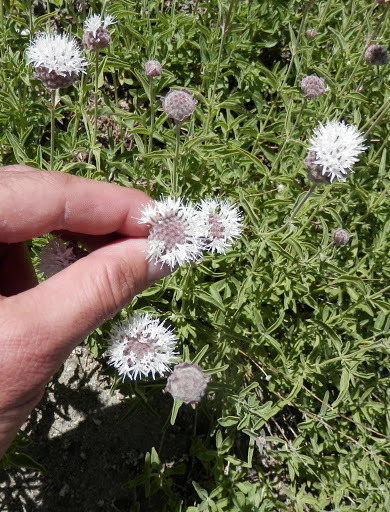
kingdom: Plantae
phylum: Tracheophyta
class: Magnoliopsida
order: Lamiales
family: Lamiaceae
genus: Monardella
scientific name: Monardella odoratissima
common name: Pacific monardella
